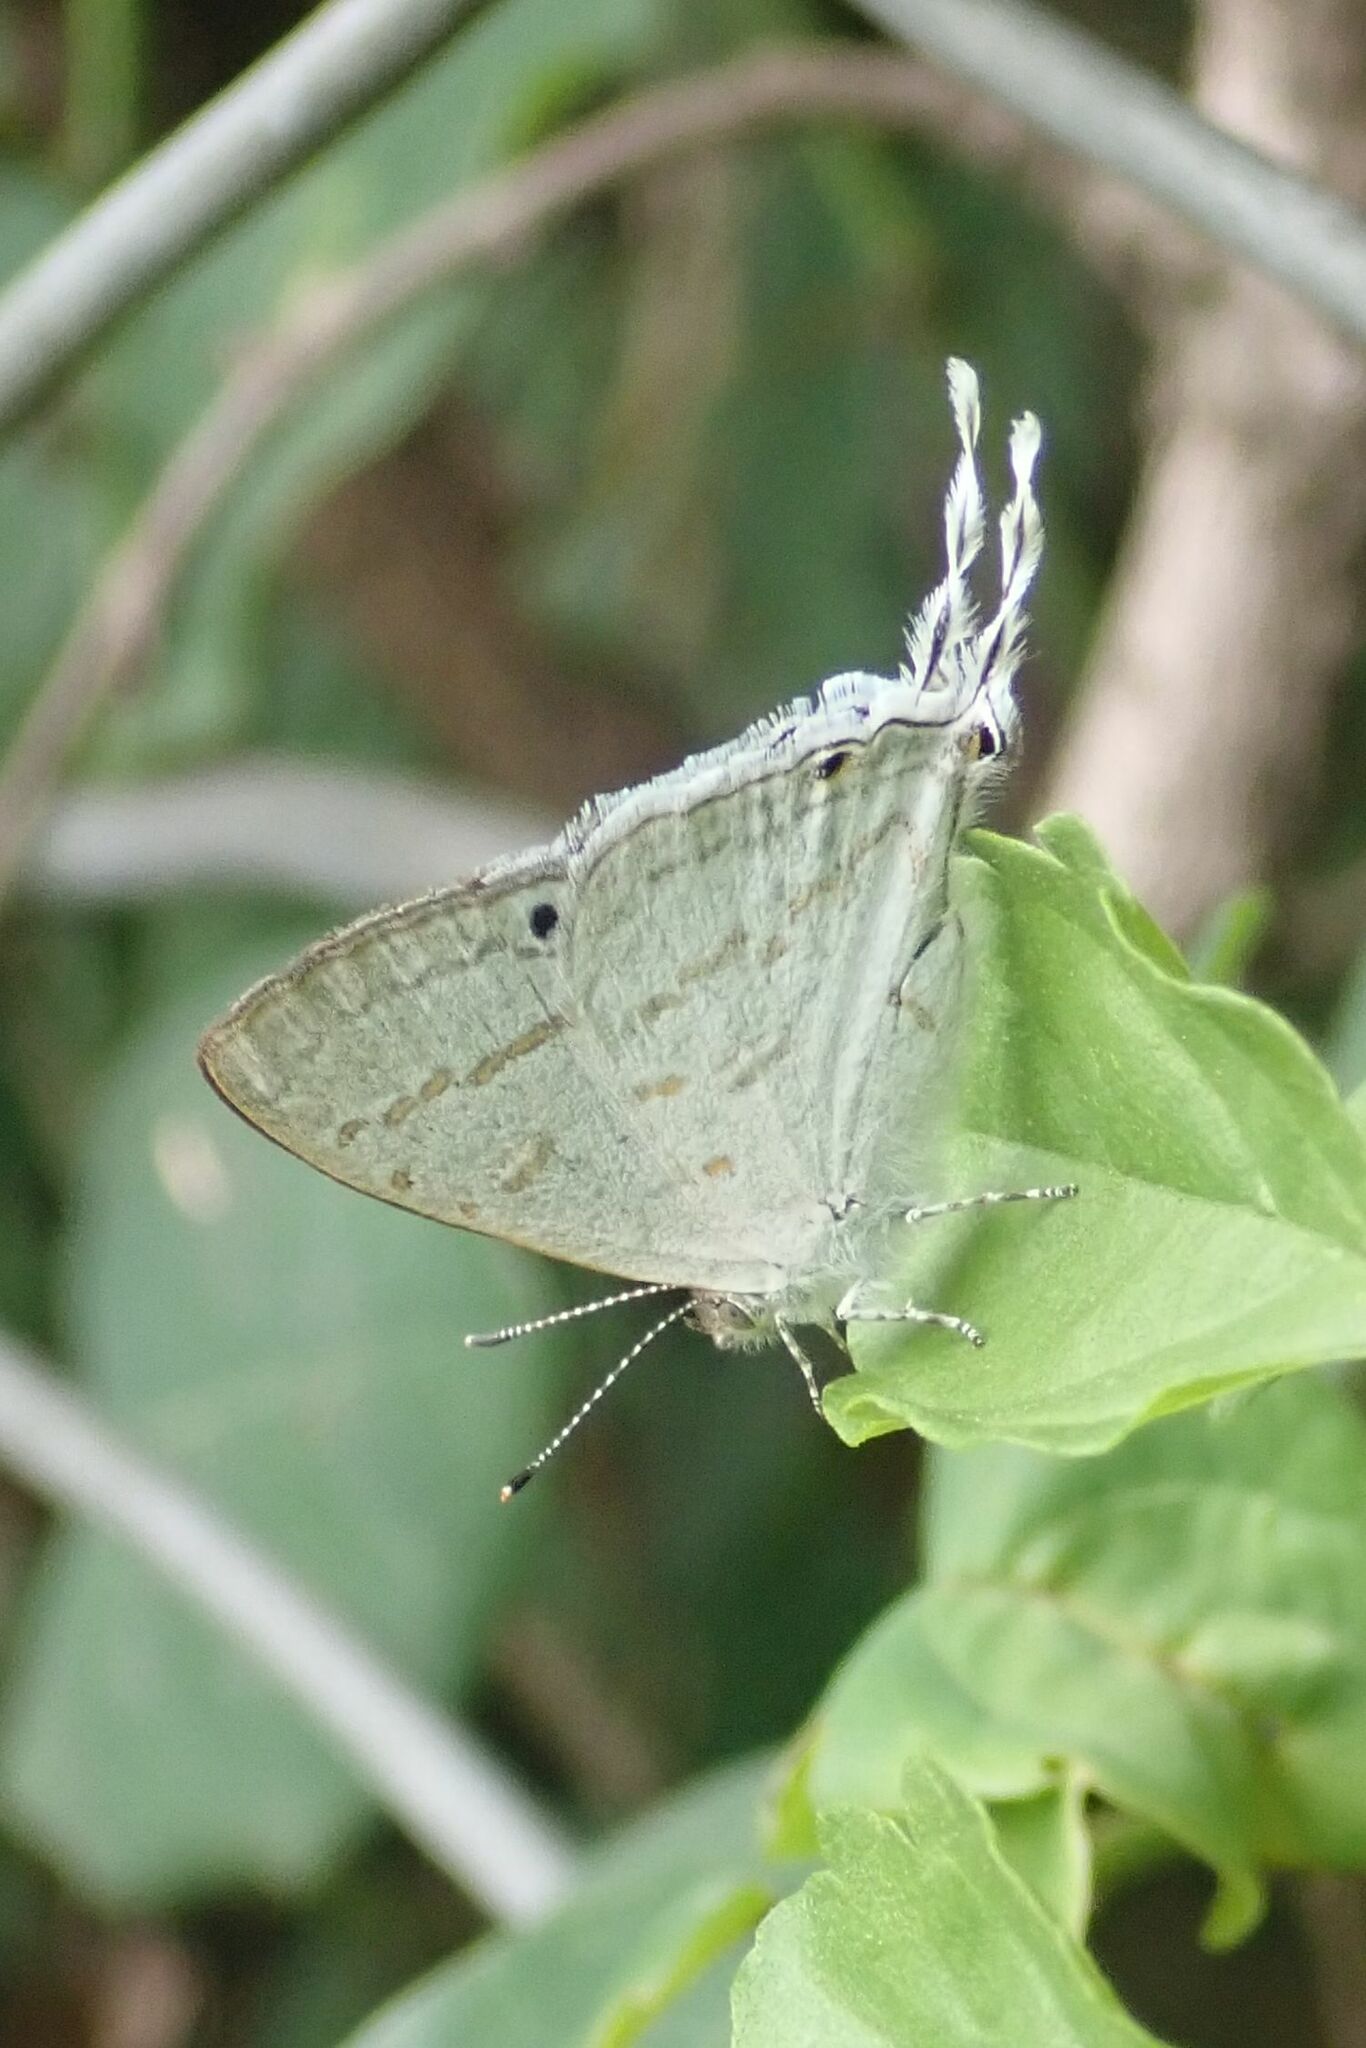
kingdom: Animalia
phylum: Arthropoda
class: Insecta
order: Lepidoptera
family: Lycaenidae
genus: Leptomyrina
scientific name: Leptomyrina hirundo
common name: Tailed black-eye
